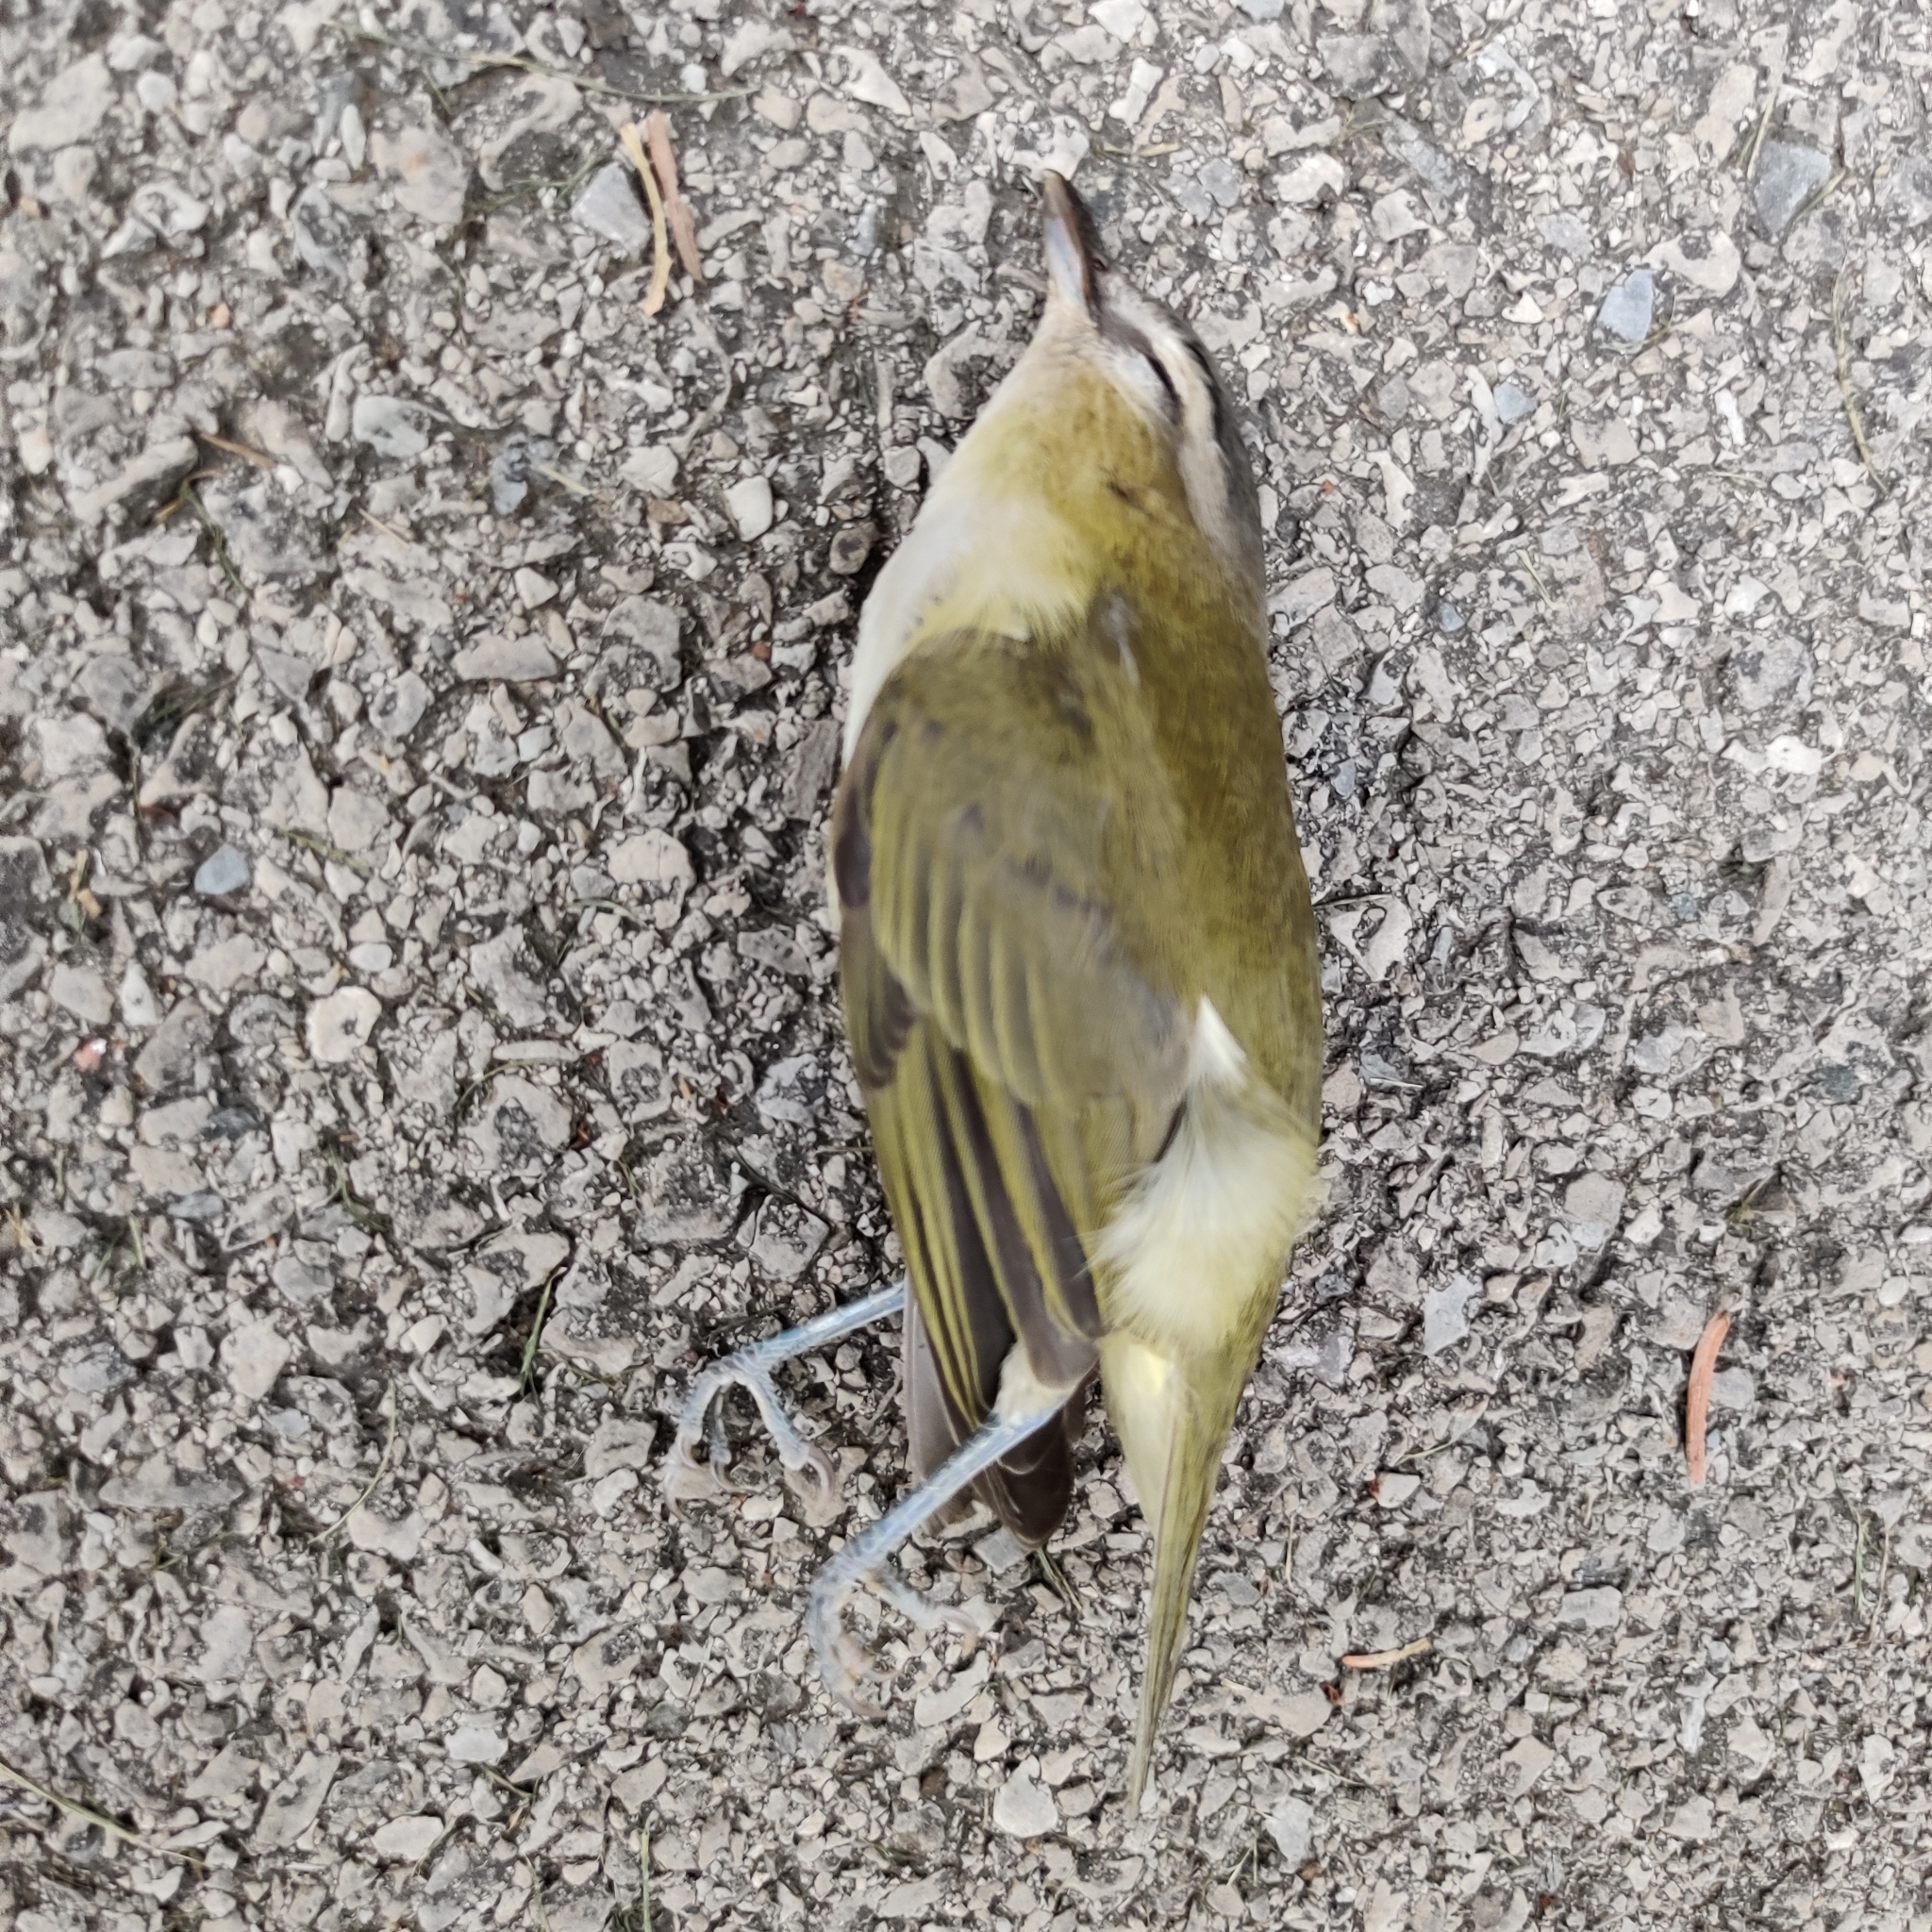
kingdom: Animalia
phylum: Chordata
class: Aves
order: Passeriformes
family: Vireonidae
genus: Vireo
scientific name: Vireo olivaceus
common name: Red-eyed vireo
